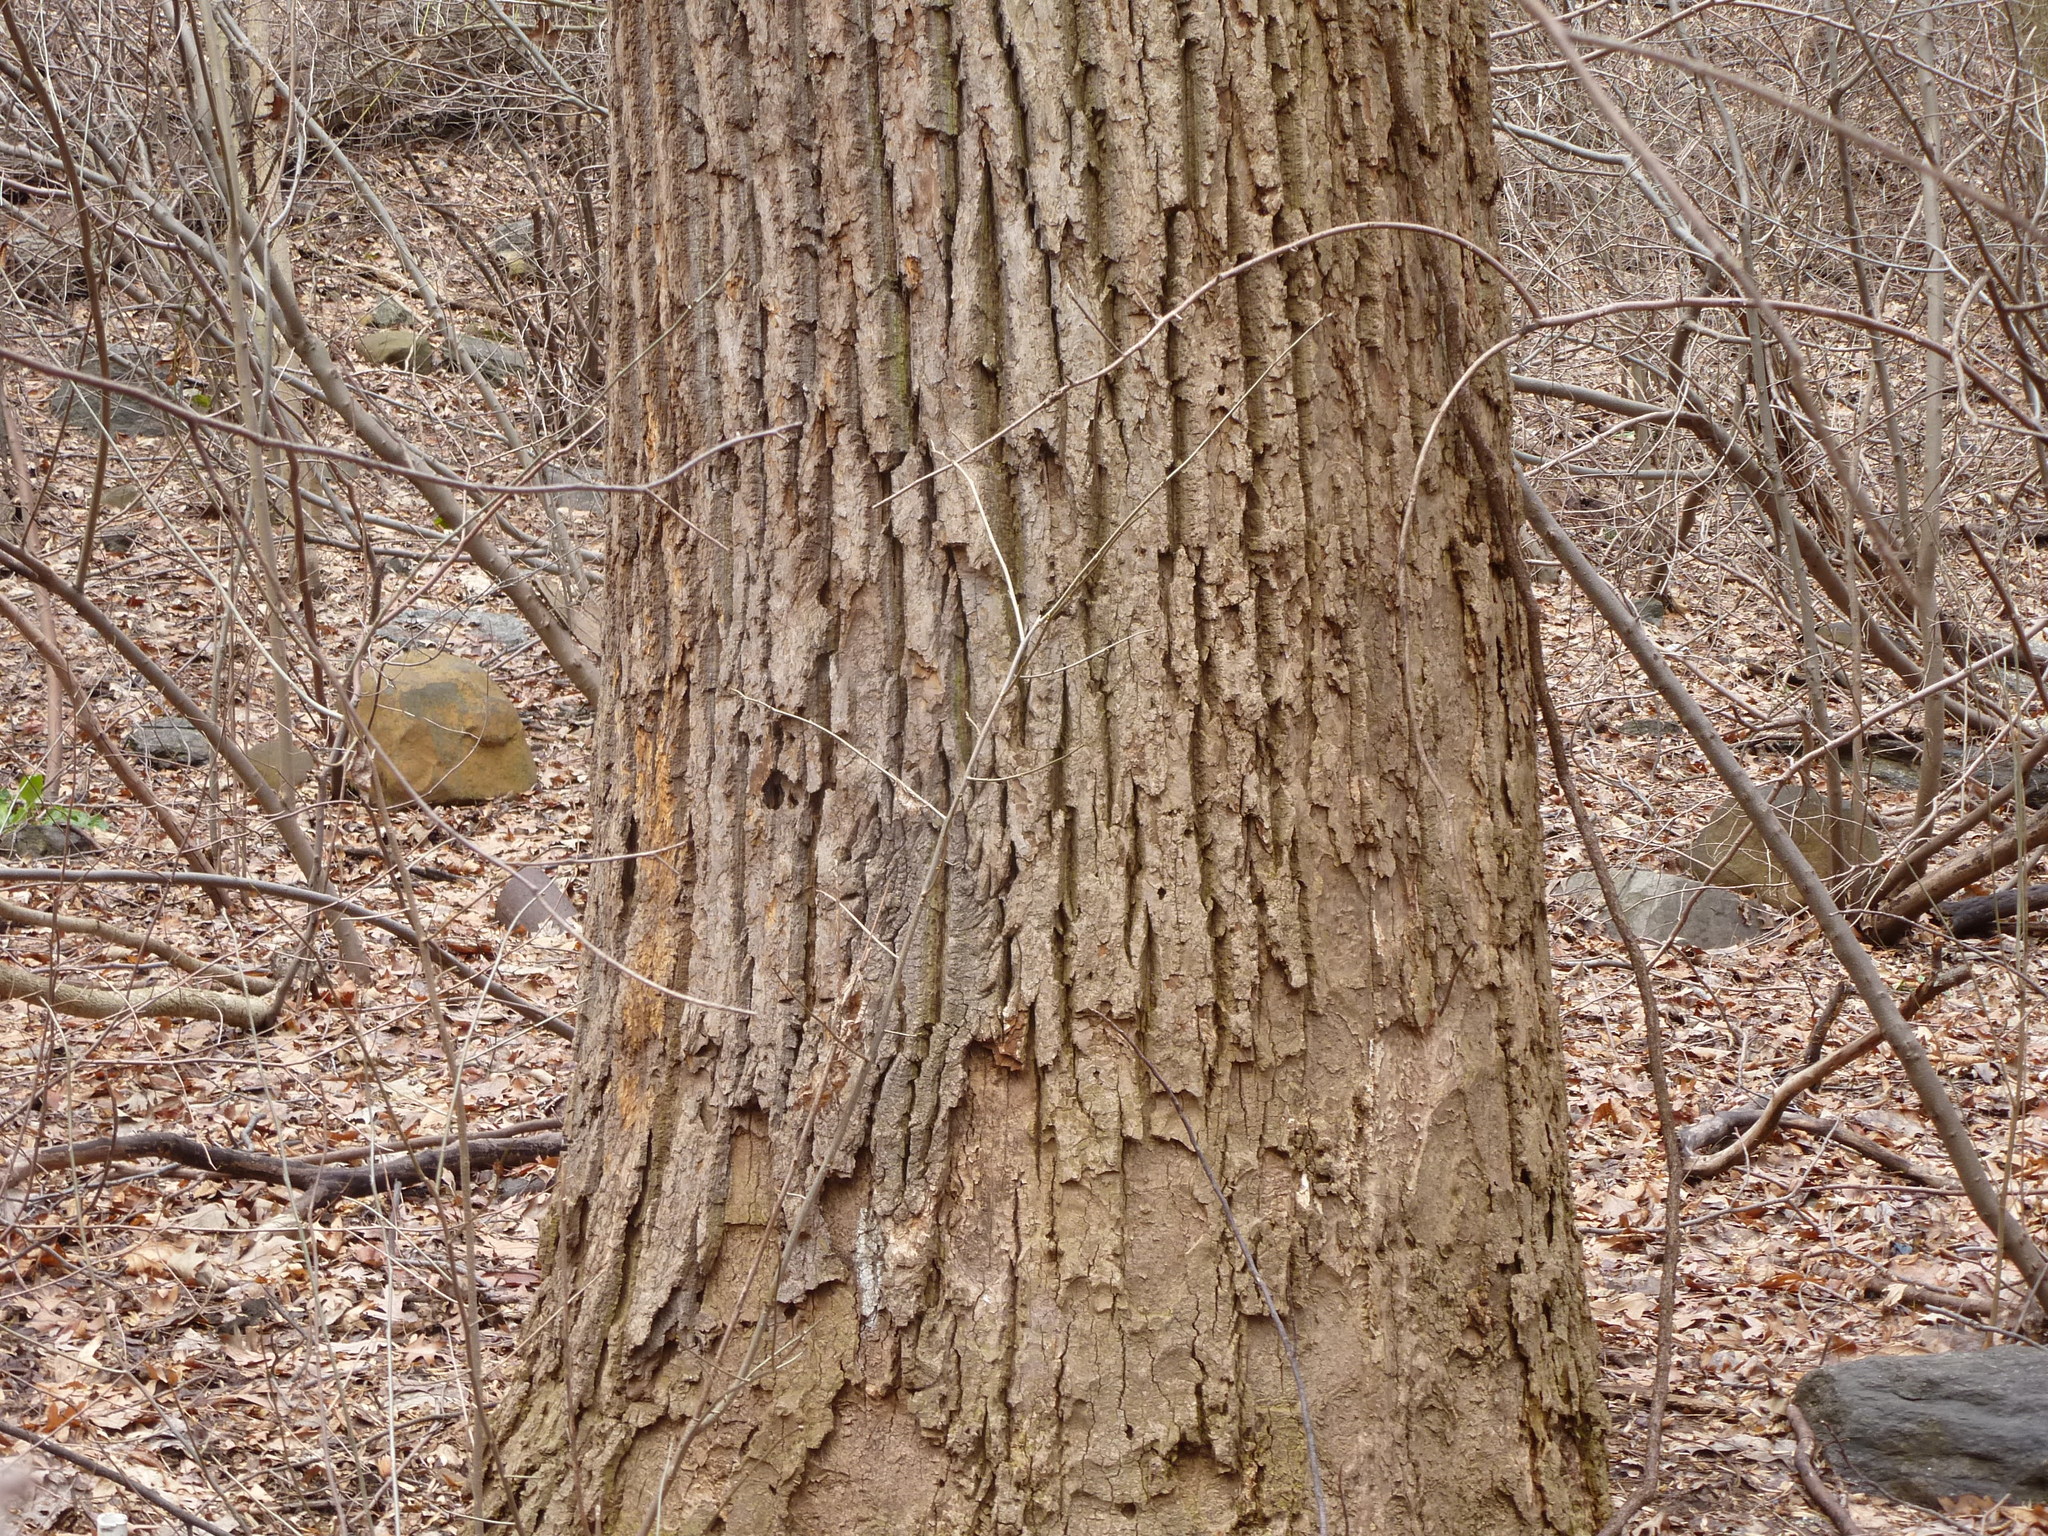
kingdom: Plantae
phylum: Tracheophyta
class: Magnoliopsida
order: Magnoliales
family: Magnoliaceae
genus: Liriodendron
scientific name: Liriodendron tulipifera
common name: Tulip tree
